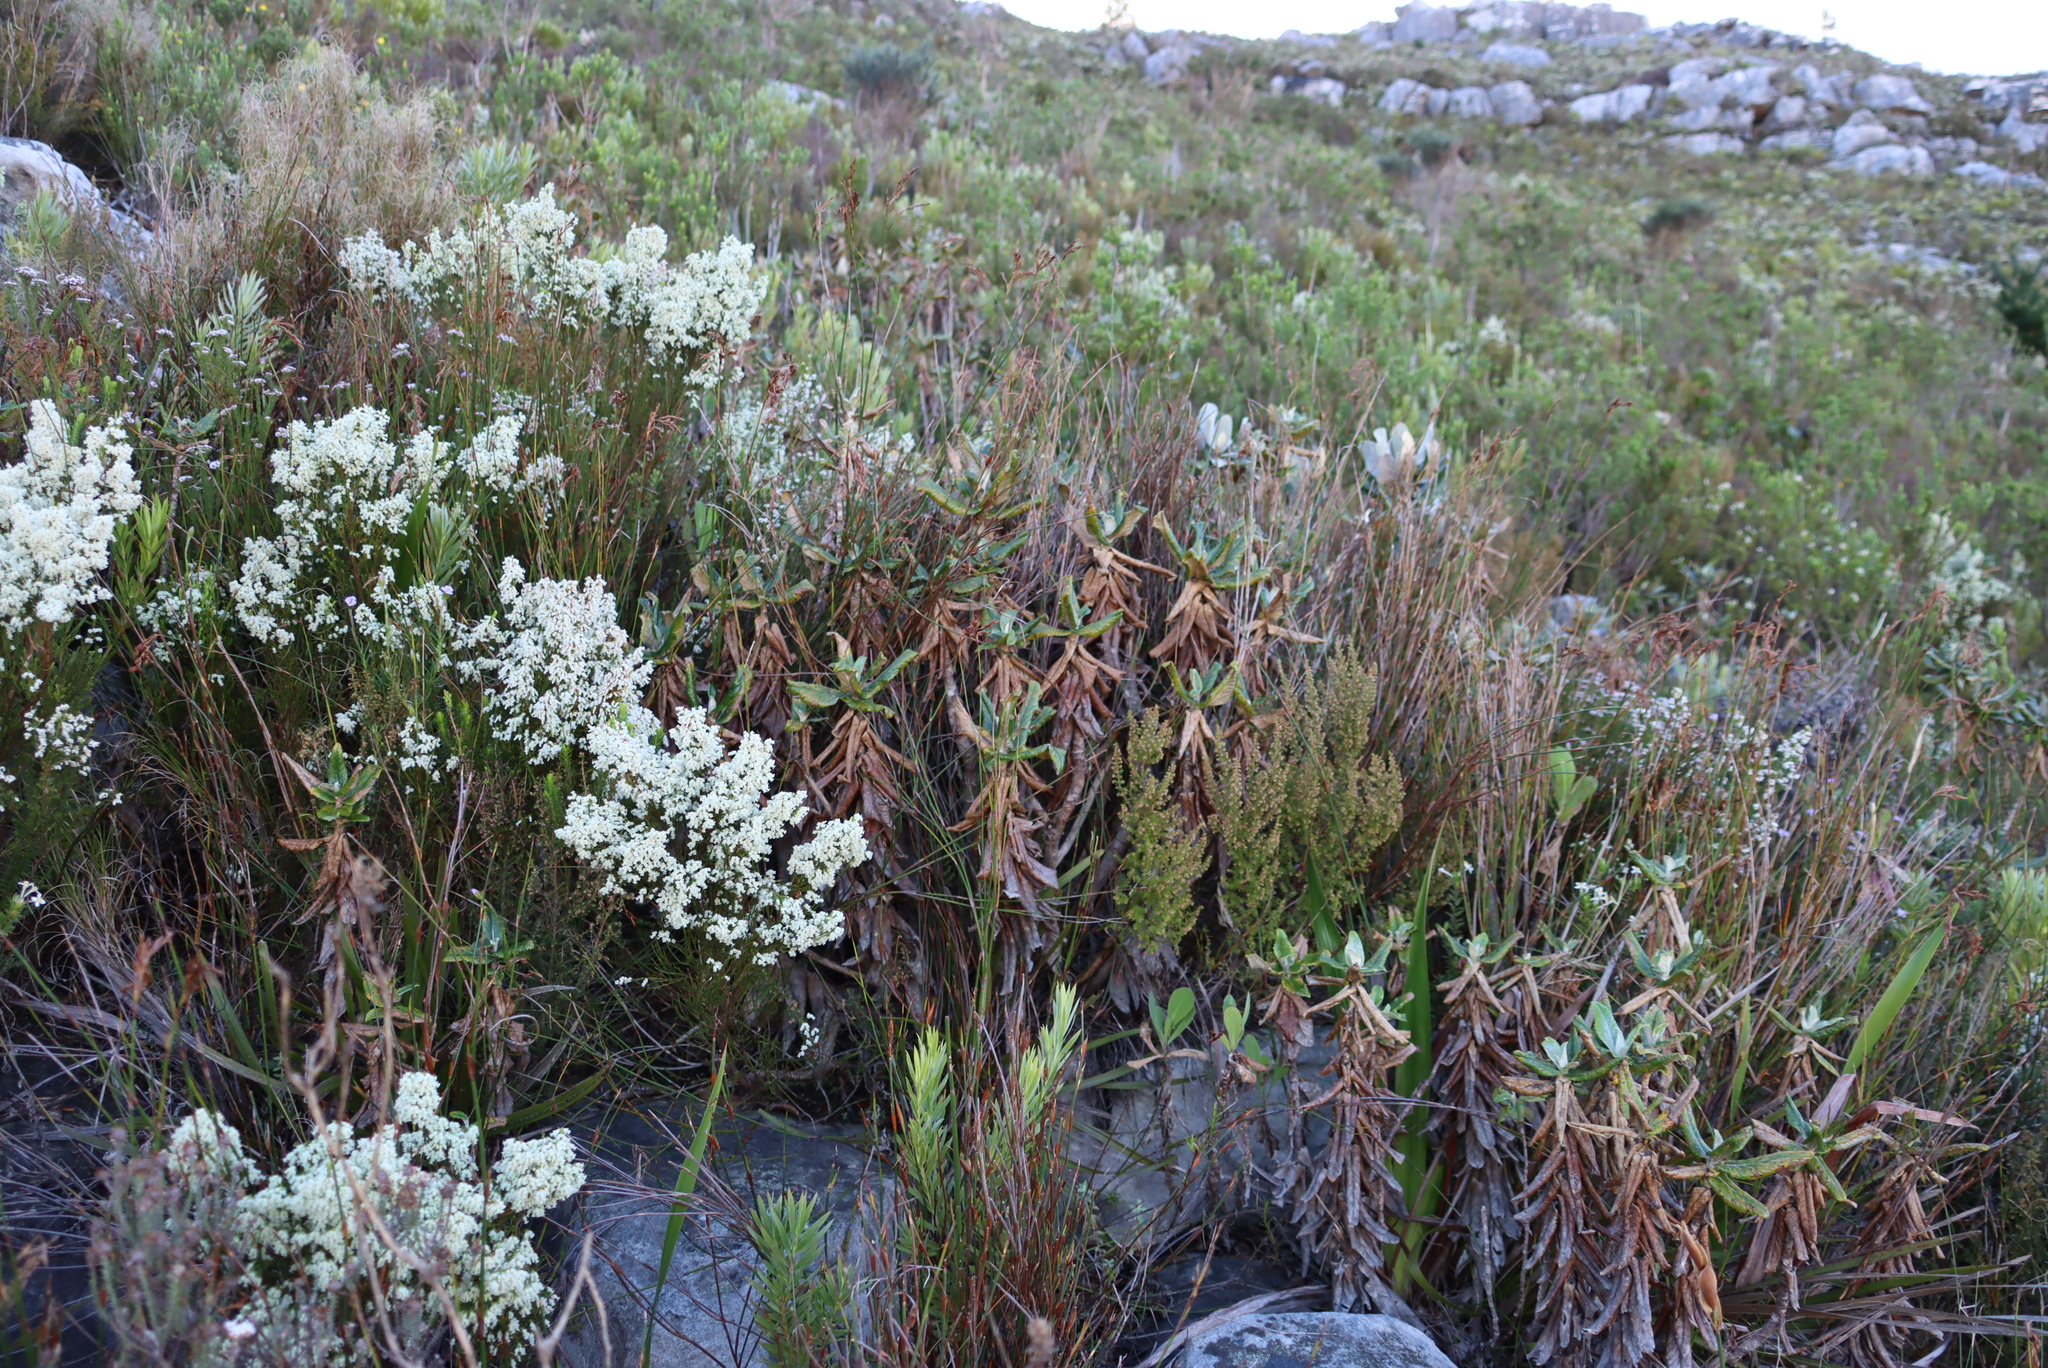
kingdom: Plantae
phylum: Tracheophyta
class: Magnoliopsida
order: Apiales
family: Apiaceae
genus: Hermas
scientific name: Hermas villosa
